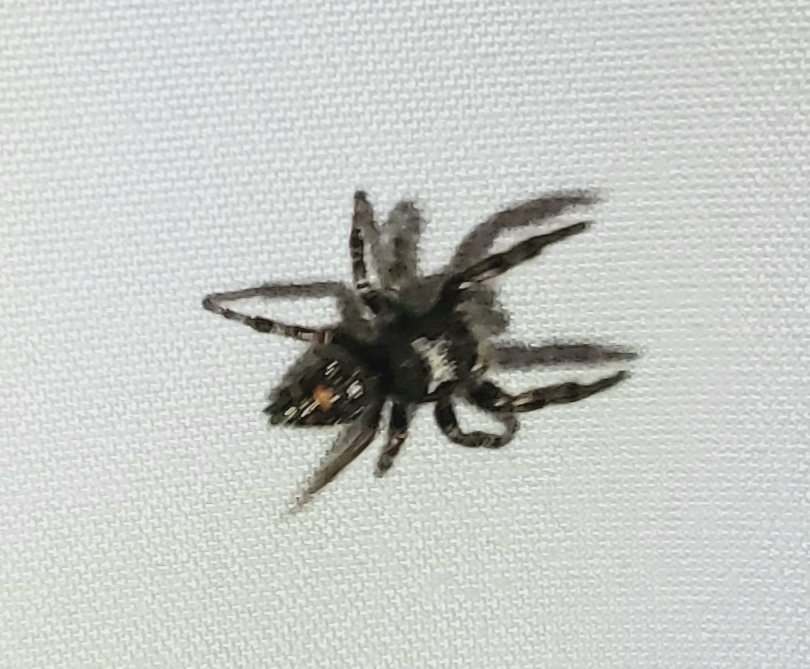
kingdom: Animalia
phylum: Arthropoda
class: Arachnida
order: Araneae
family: Salticidae
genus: Phidippus
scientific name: Phidippus audax
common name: Bold jumper
